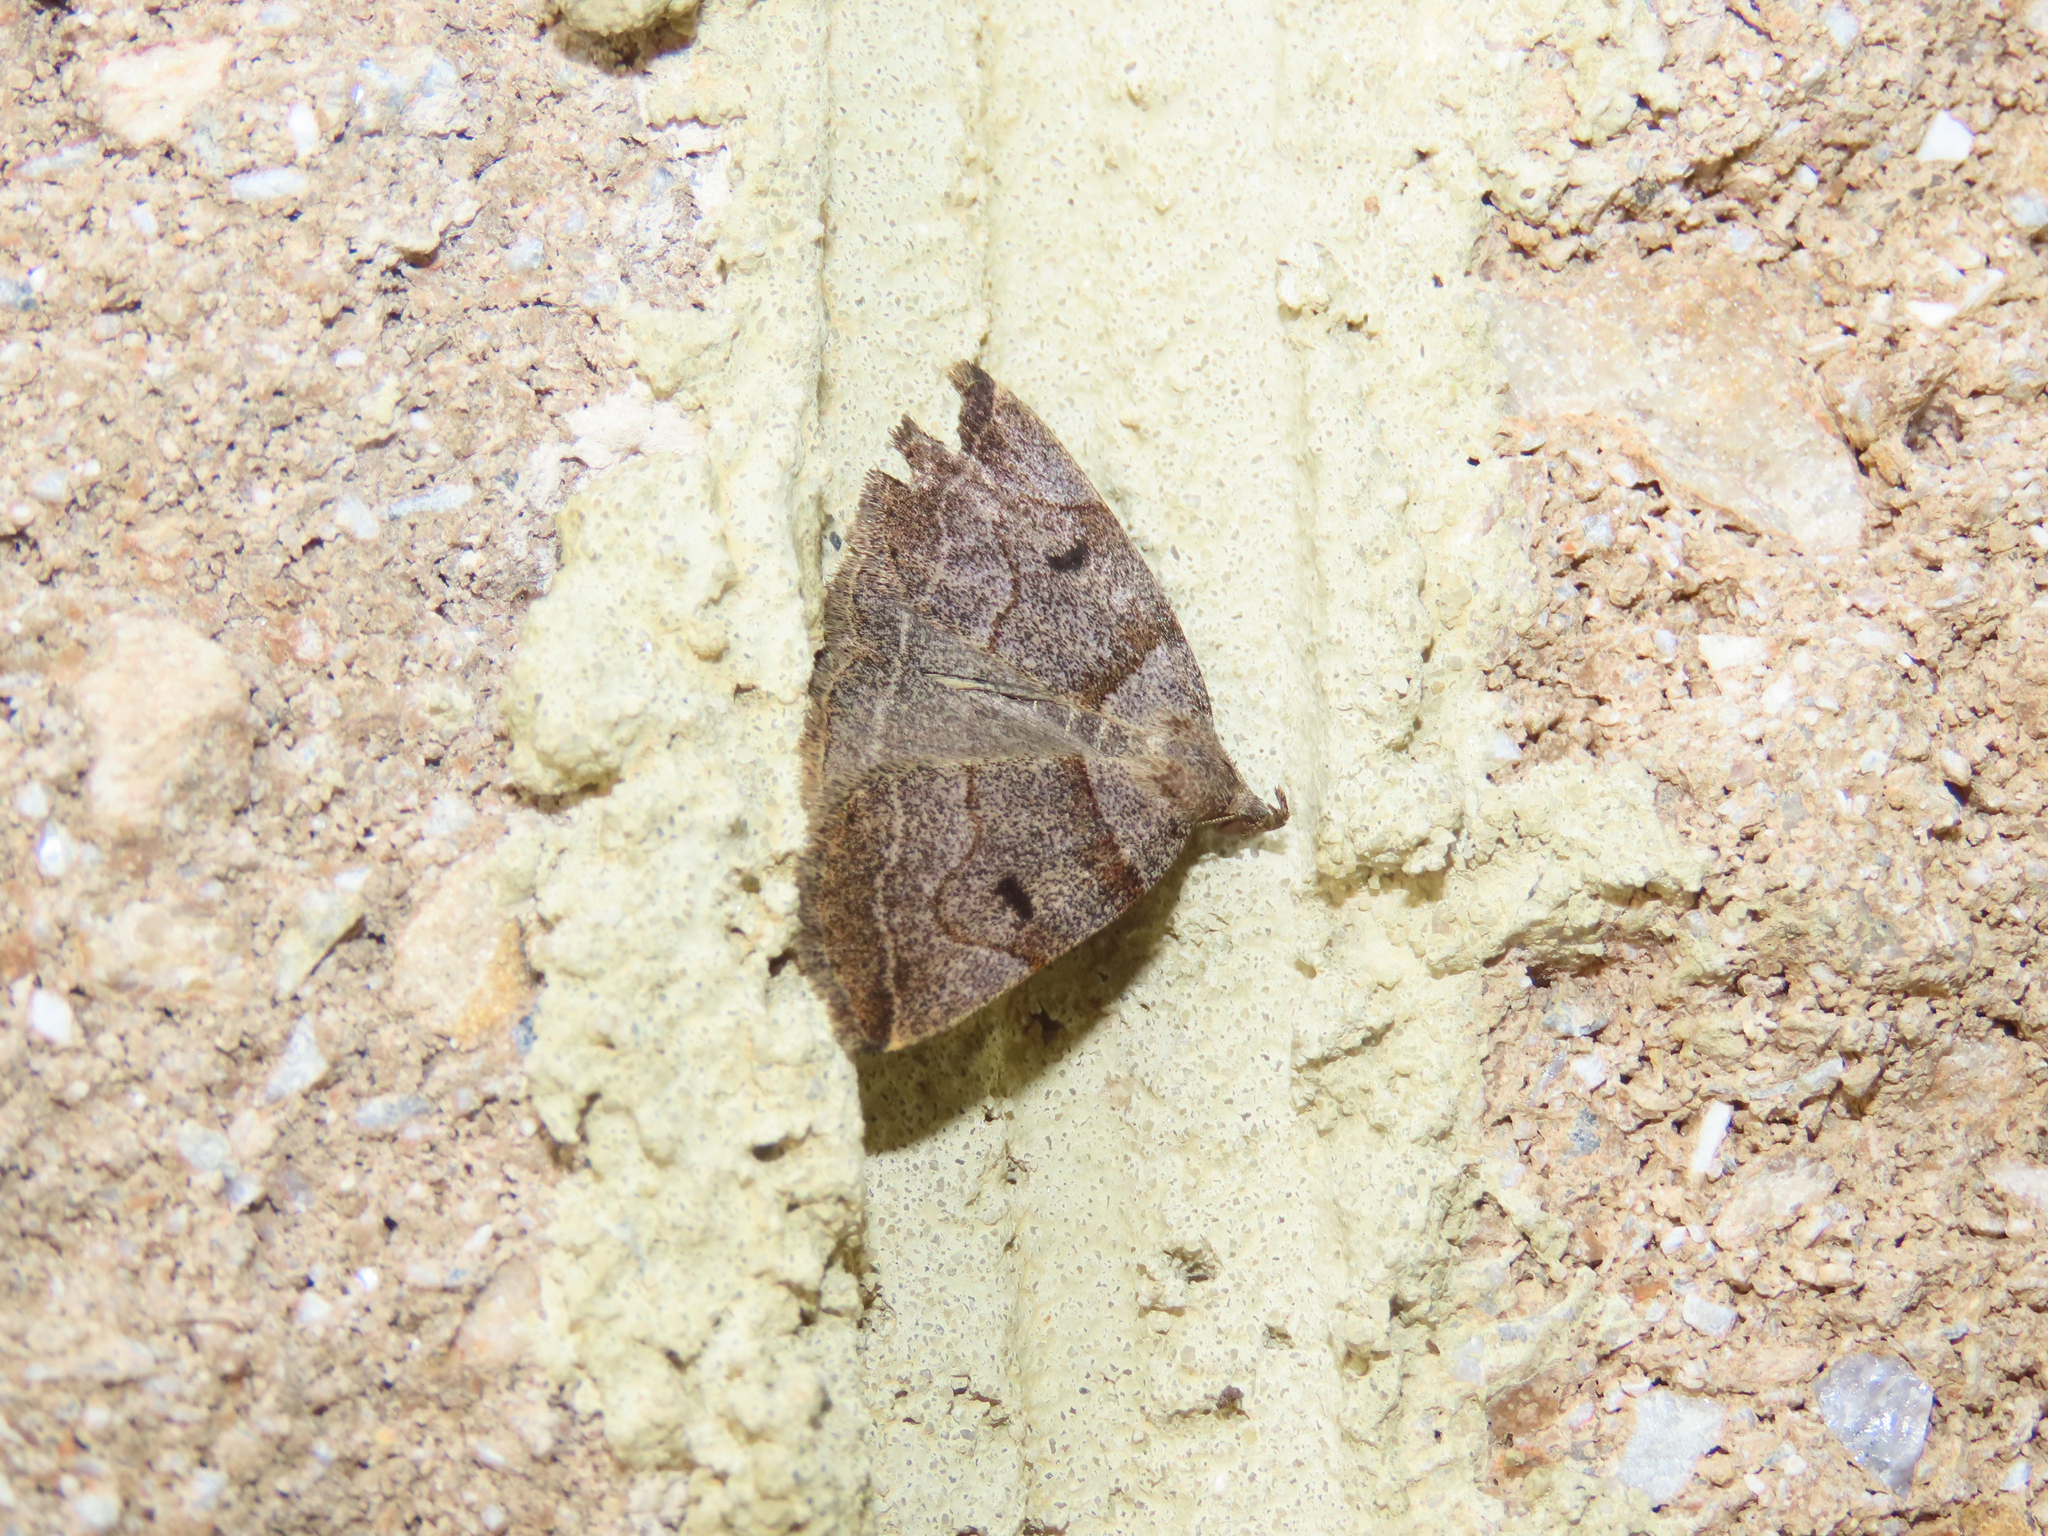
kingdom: Animalia
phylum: Arthropoda
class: Insecta
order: Lepidoptera
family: Erebidae
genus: Zanclognatha
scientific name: Zanclognatha laevigata
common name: Variable fan-foot
